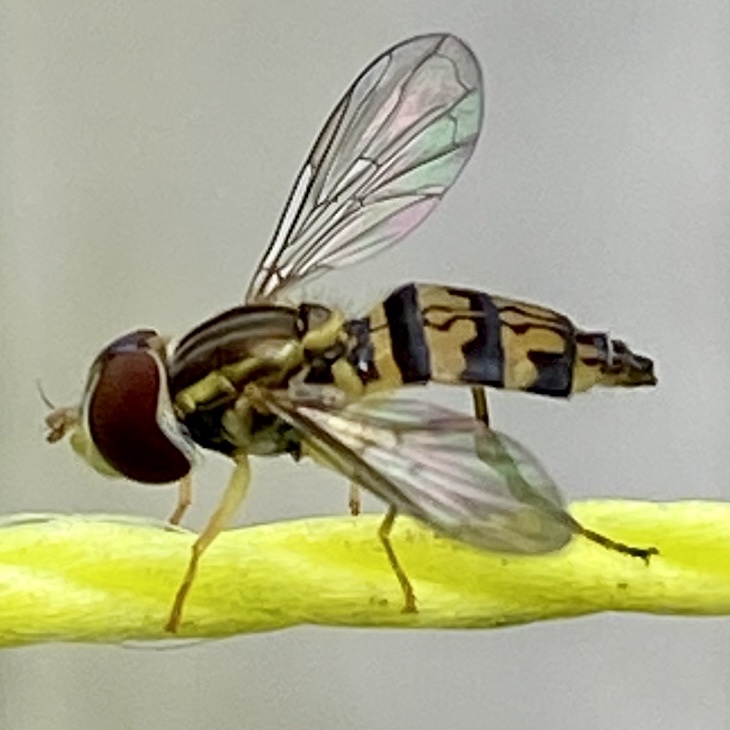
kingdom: Animalia
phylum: Arthropoda
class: Insecta
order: Diptera
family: Syrphidae
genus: Toxomerus
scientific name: Toxomerus geminatus
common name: Eastern calligrapher
